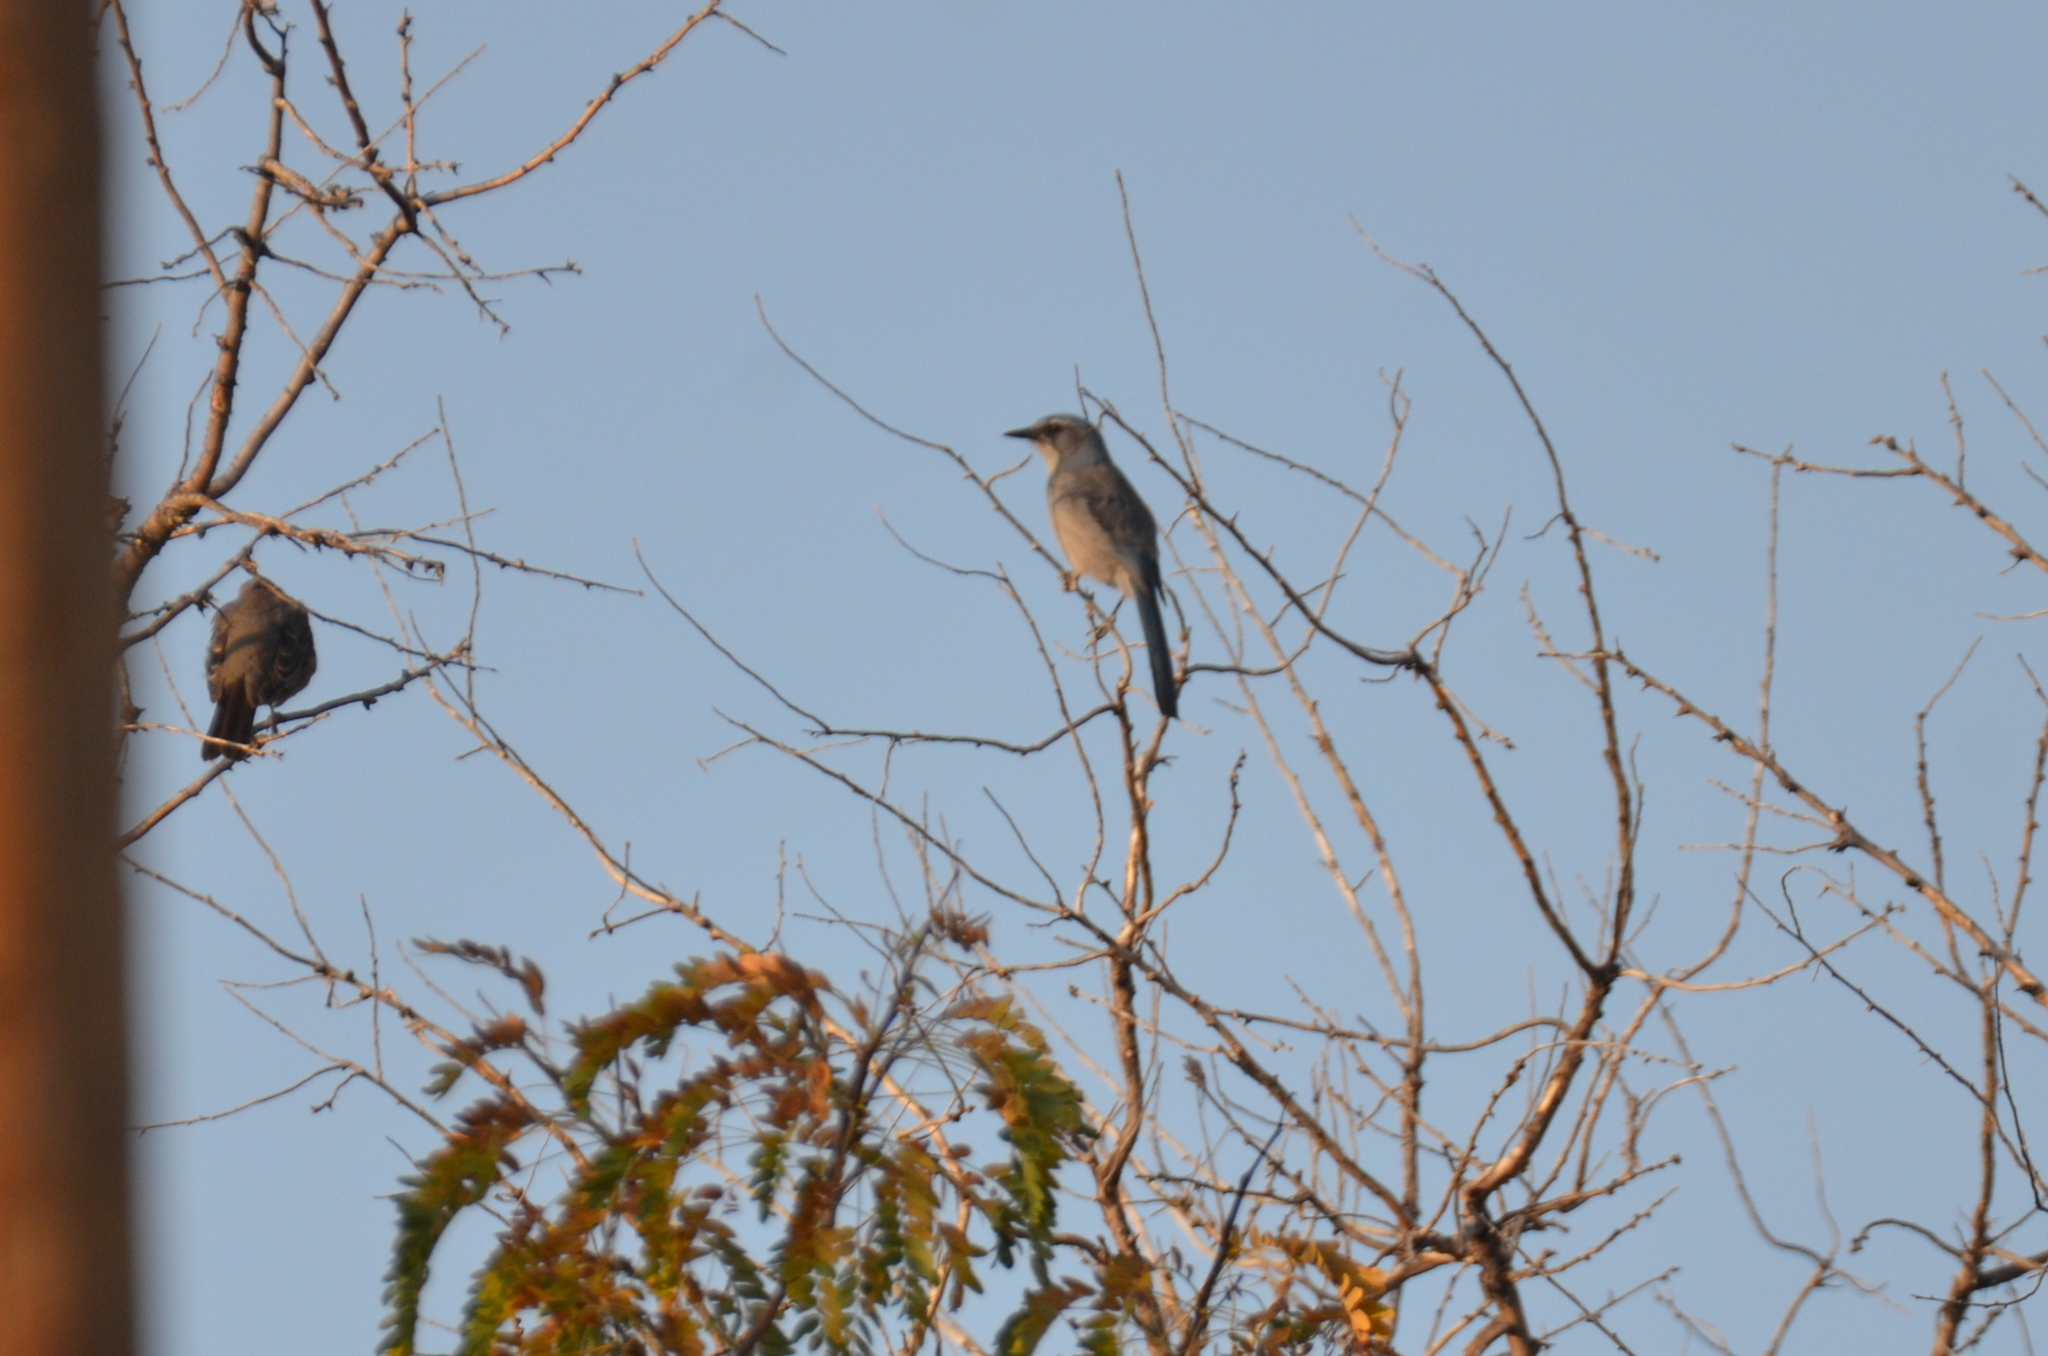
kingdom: Animalia
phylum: Chordata
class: Aves
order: Passeriformes
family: Corvidae
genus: Aphelocoma
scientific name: Aphelocoma woodhouseii
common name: Woodhouse's scrub-jay
